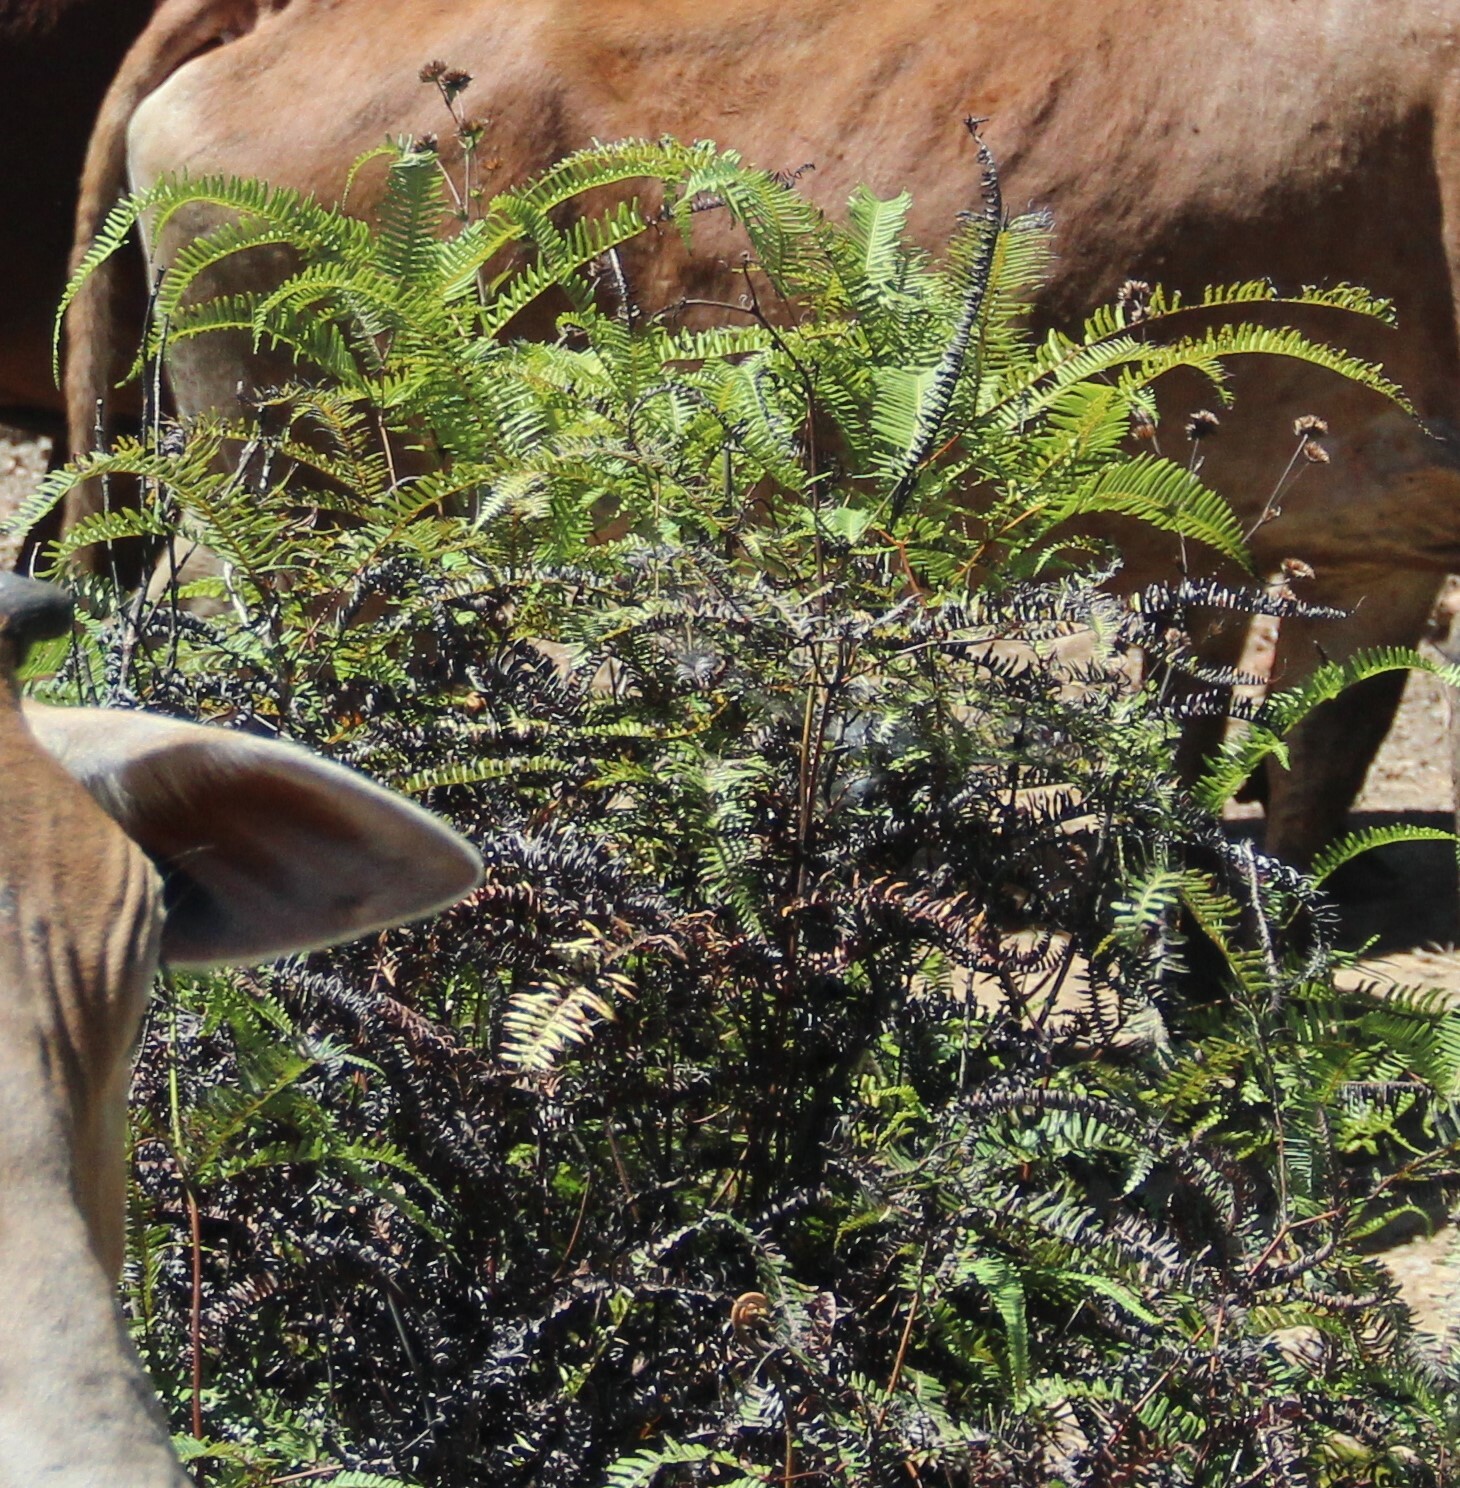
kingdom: Plantae
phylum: Tracheophyta
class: Polypodiopsida
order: Gleicheniales
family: Gleicheniaceae
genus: Dicranopteris
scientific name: Dicranopteris linearis
